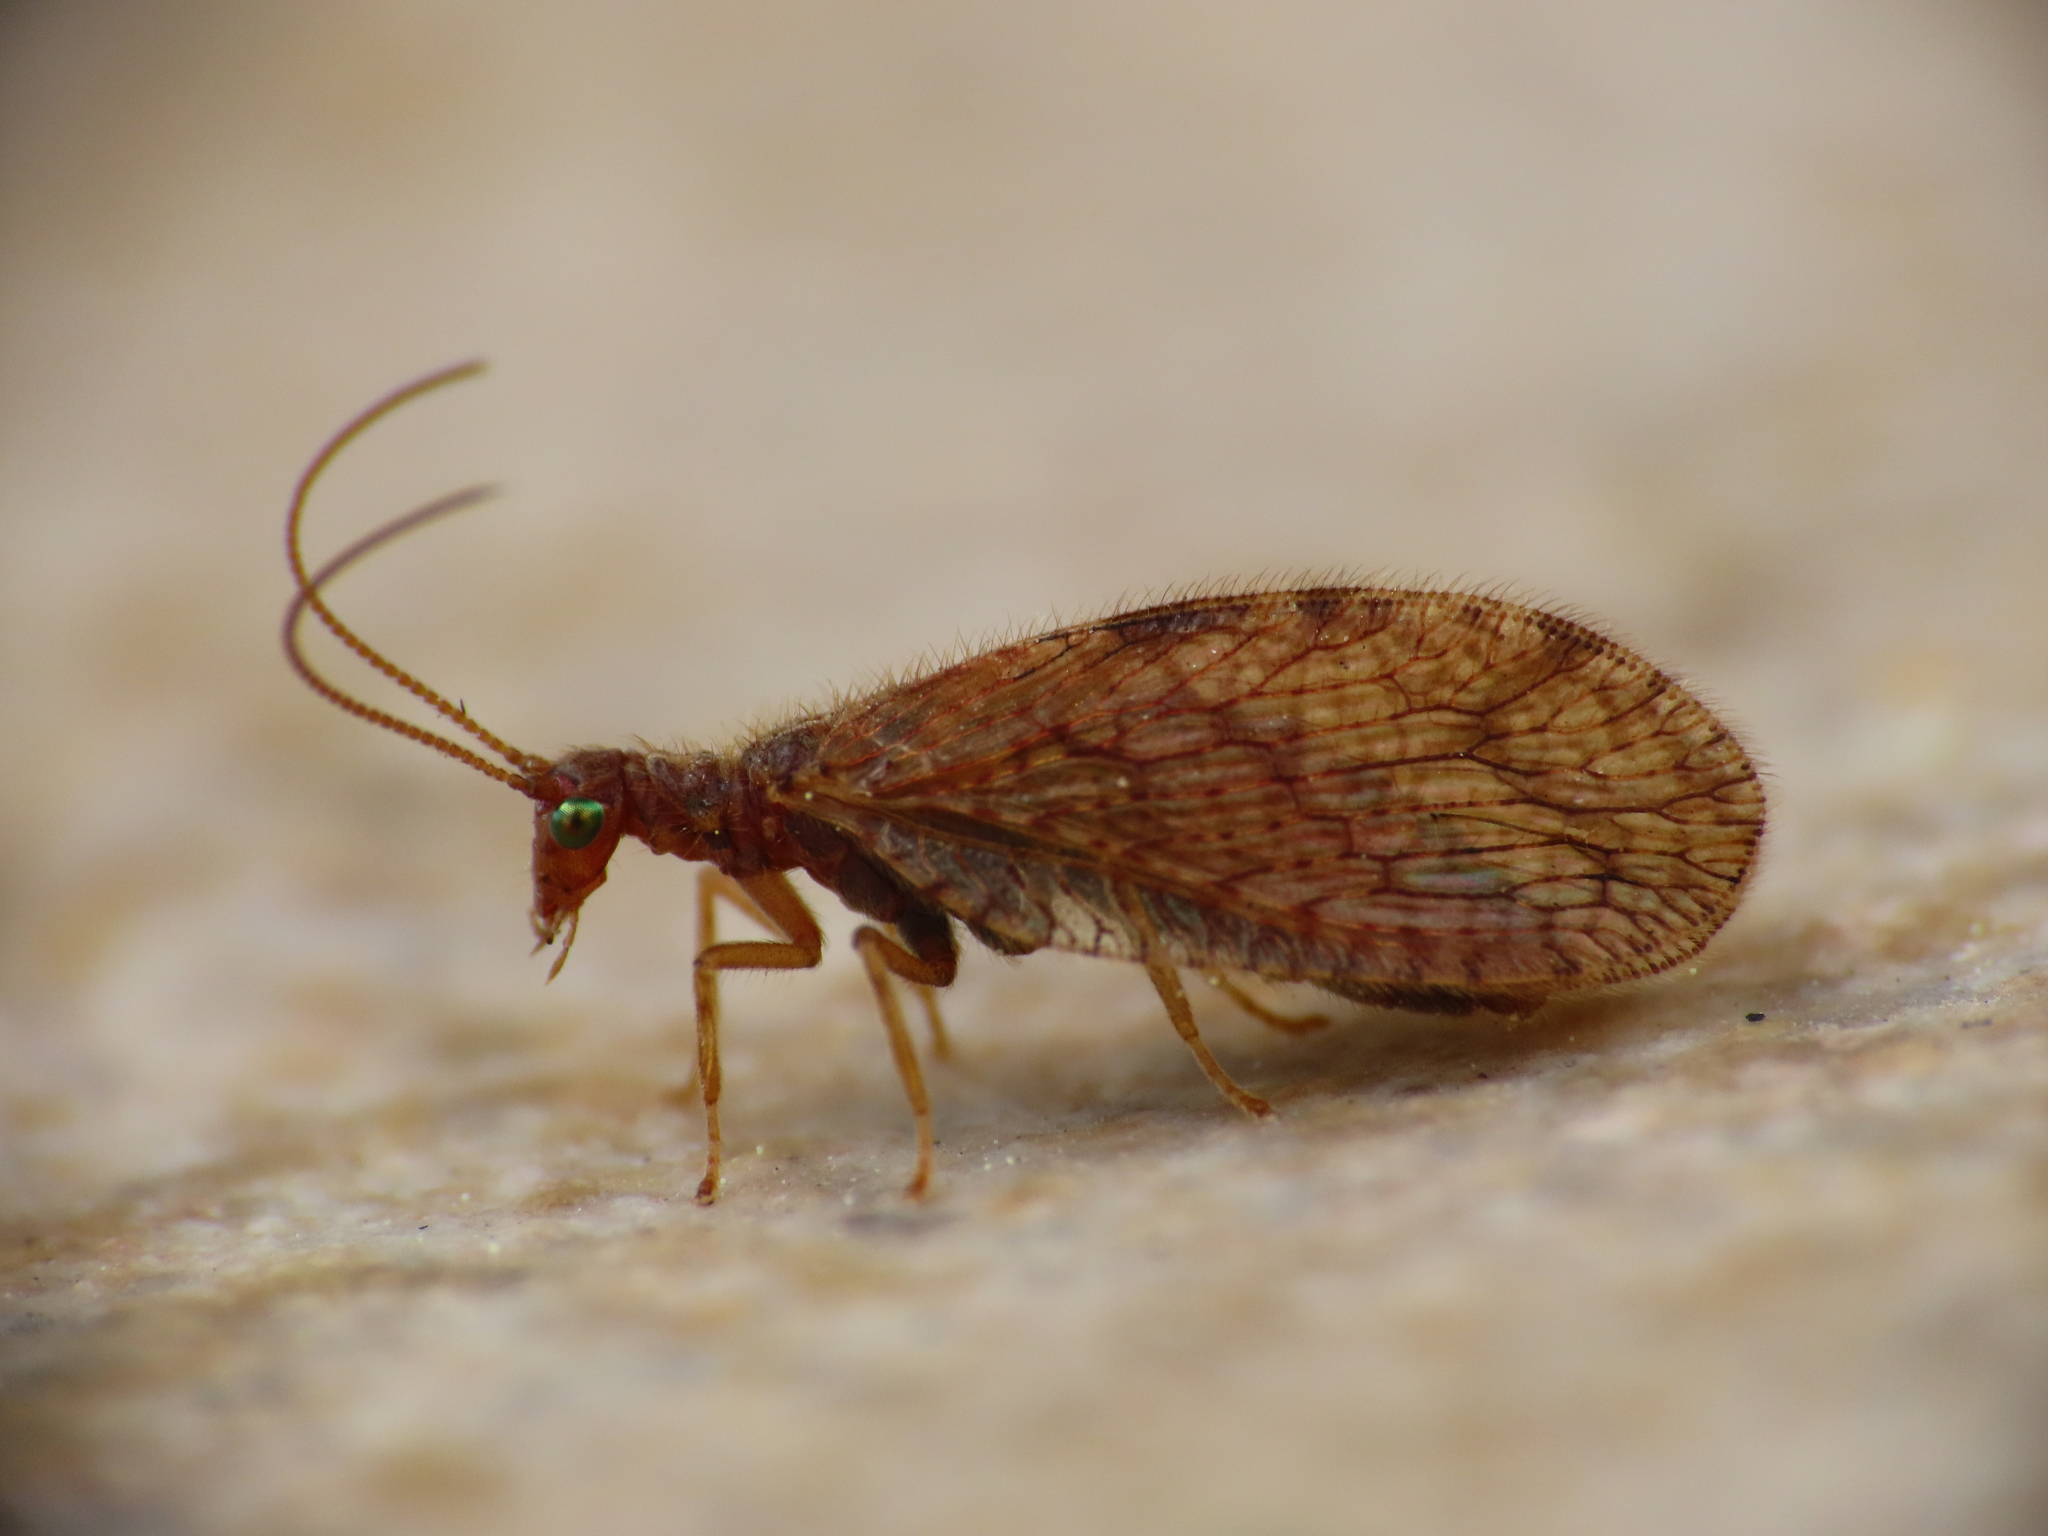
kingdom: Animalia
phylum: Arthropoda
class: Insecta
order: Neuroptera
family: Hemerobiidae
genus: Micromus
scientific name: Micromus angulatus
